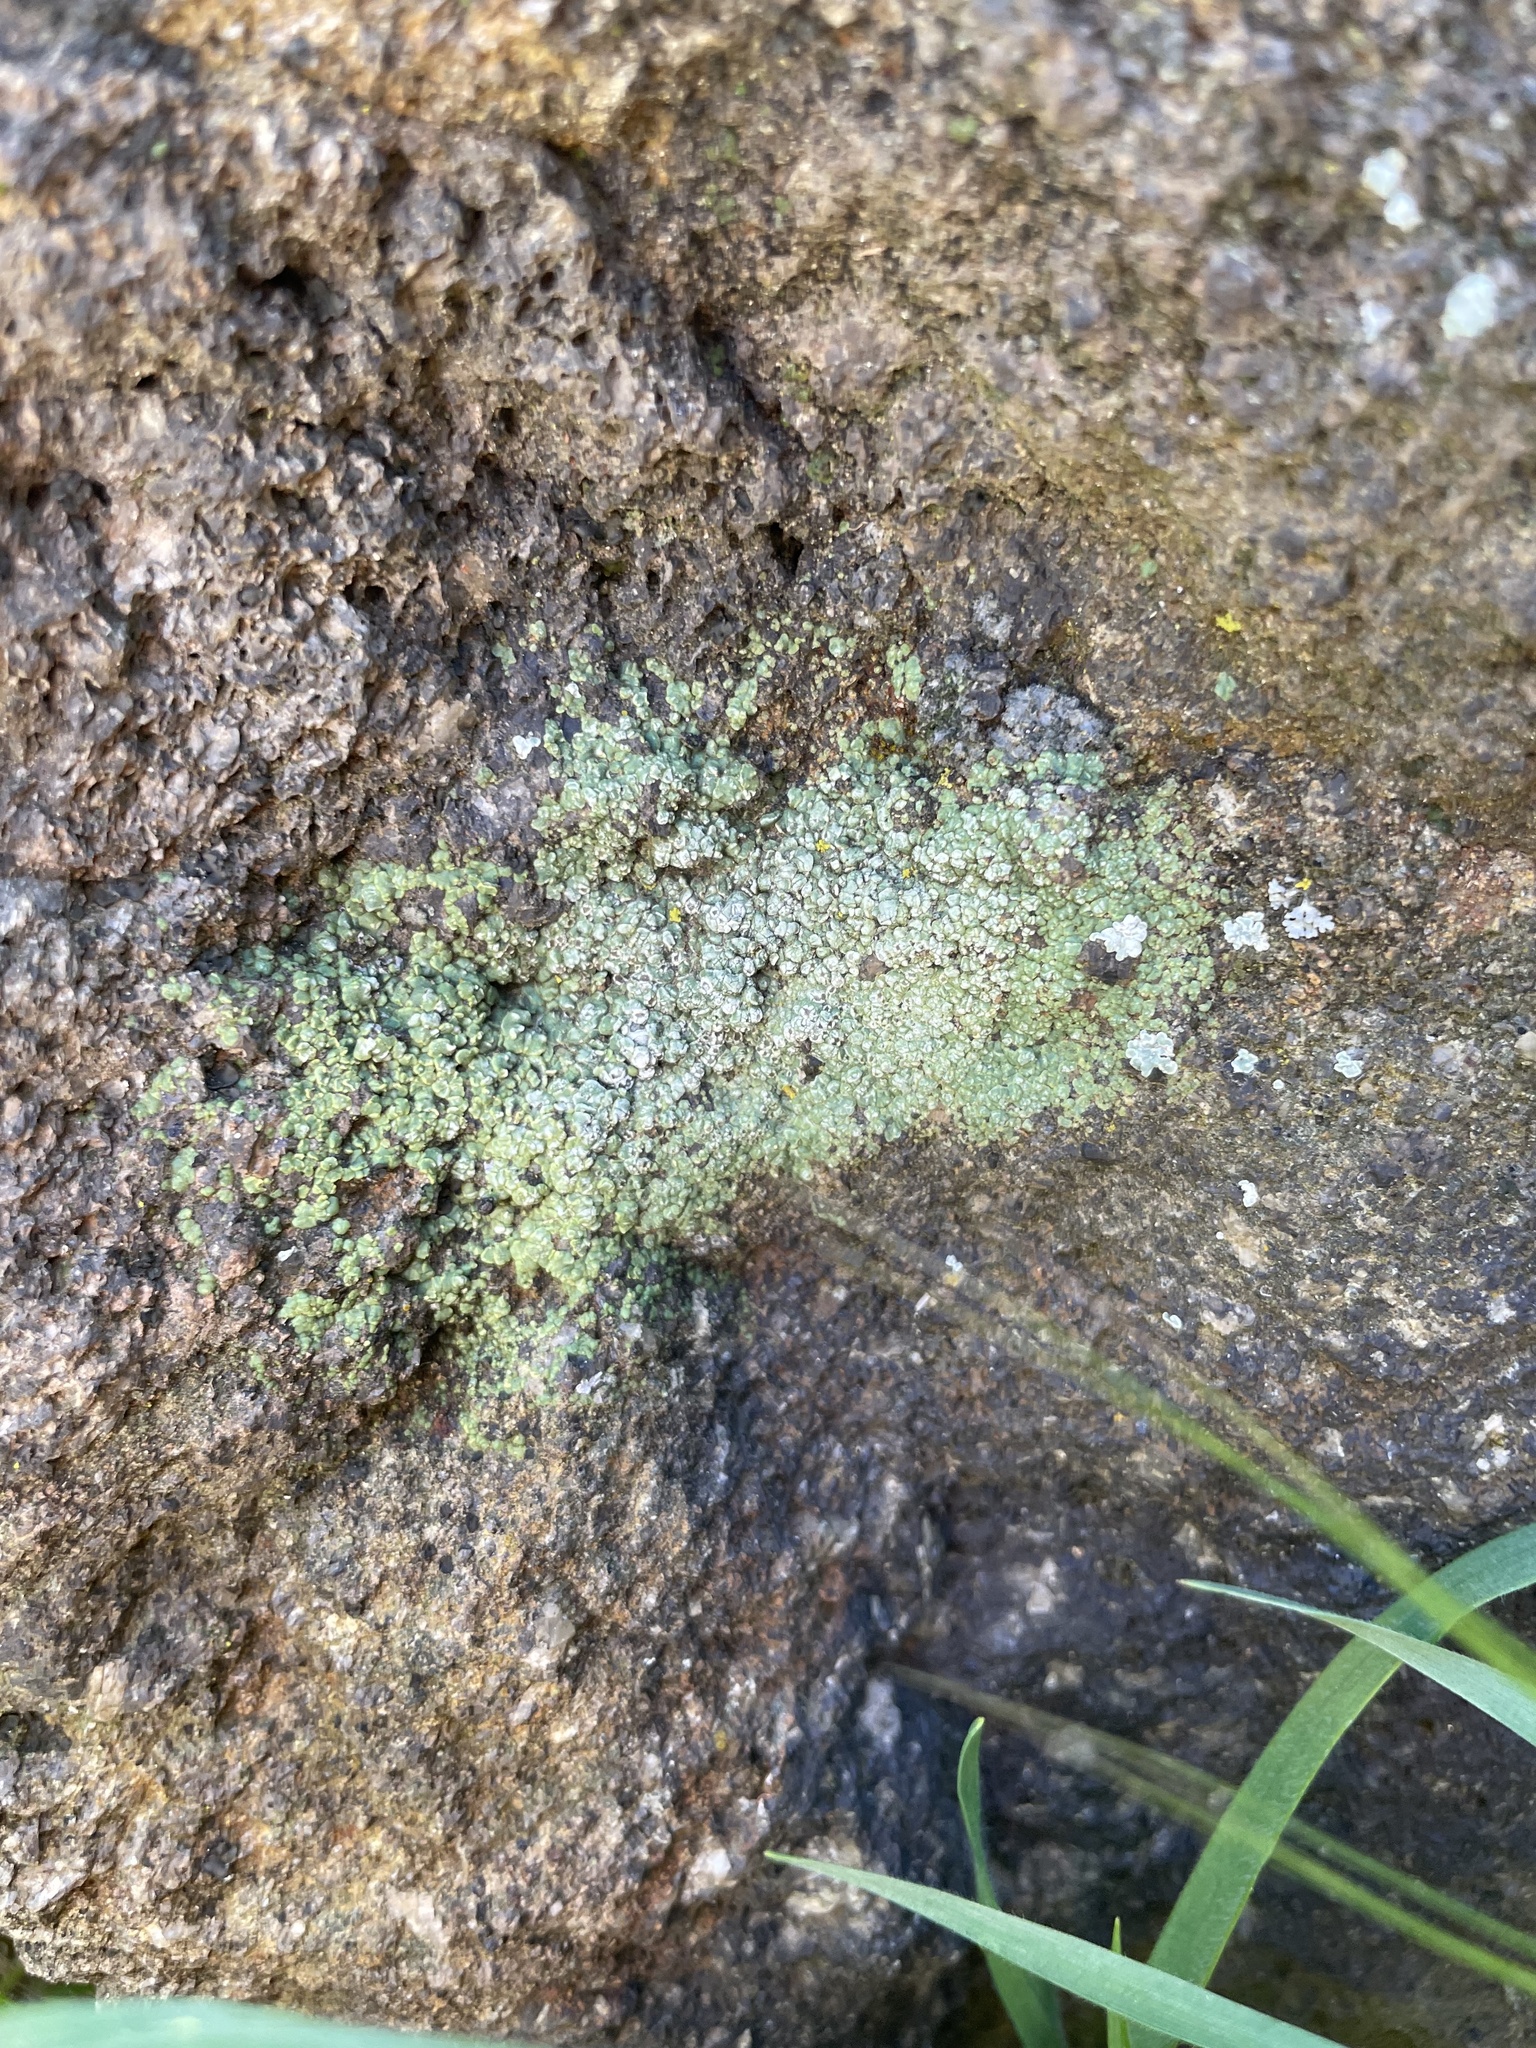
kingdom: Fungi
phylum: Ascomycota
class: Lecanoromycetes
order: Acarosporales
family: Acarosporaceae
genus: Acarospora
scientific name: Acarospora socialis
